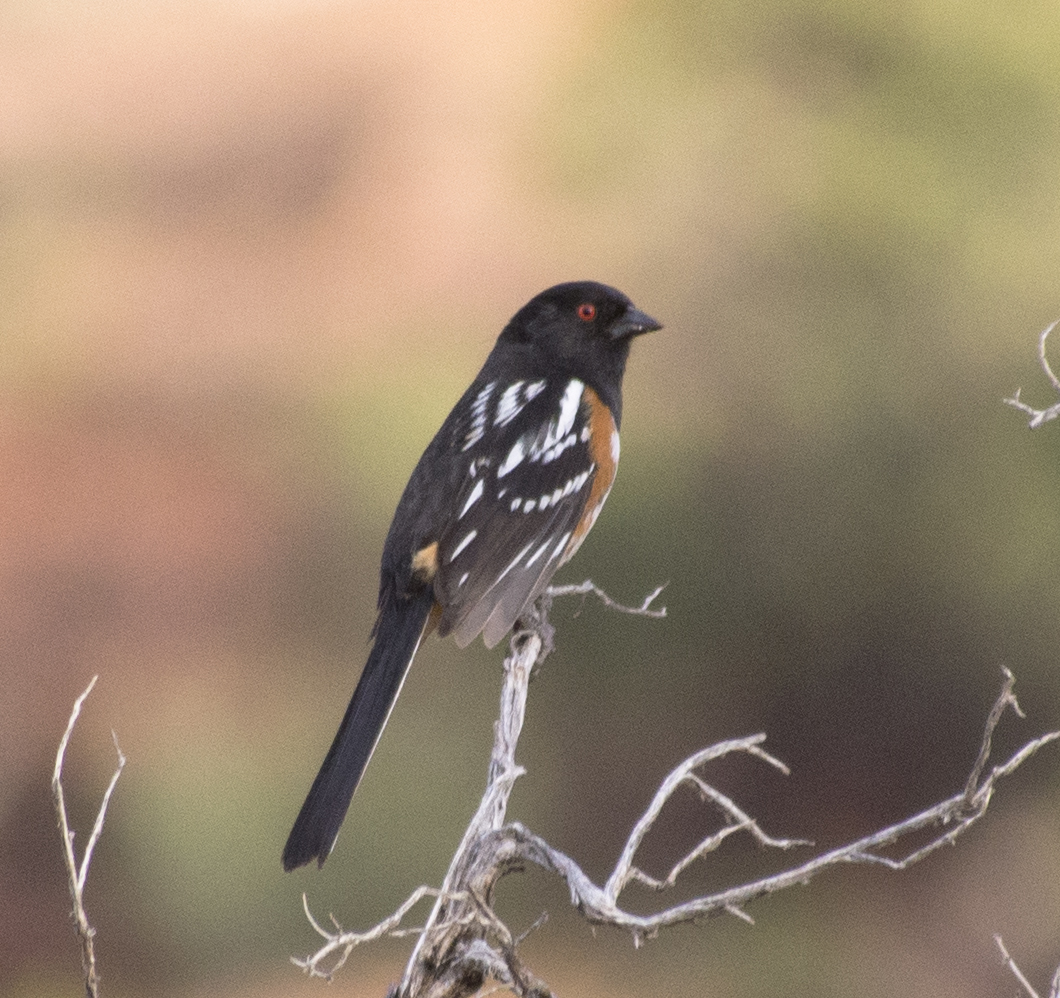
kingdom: Animalia
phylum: Chordata
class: Aves
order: Passeriformes
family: Passerellidae
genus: Pipilo
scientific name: Pipilo maculatus
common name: Spotted towhee
